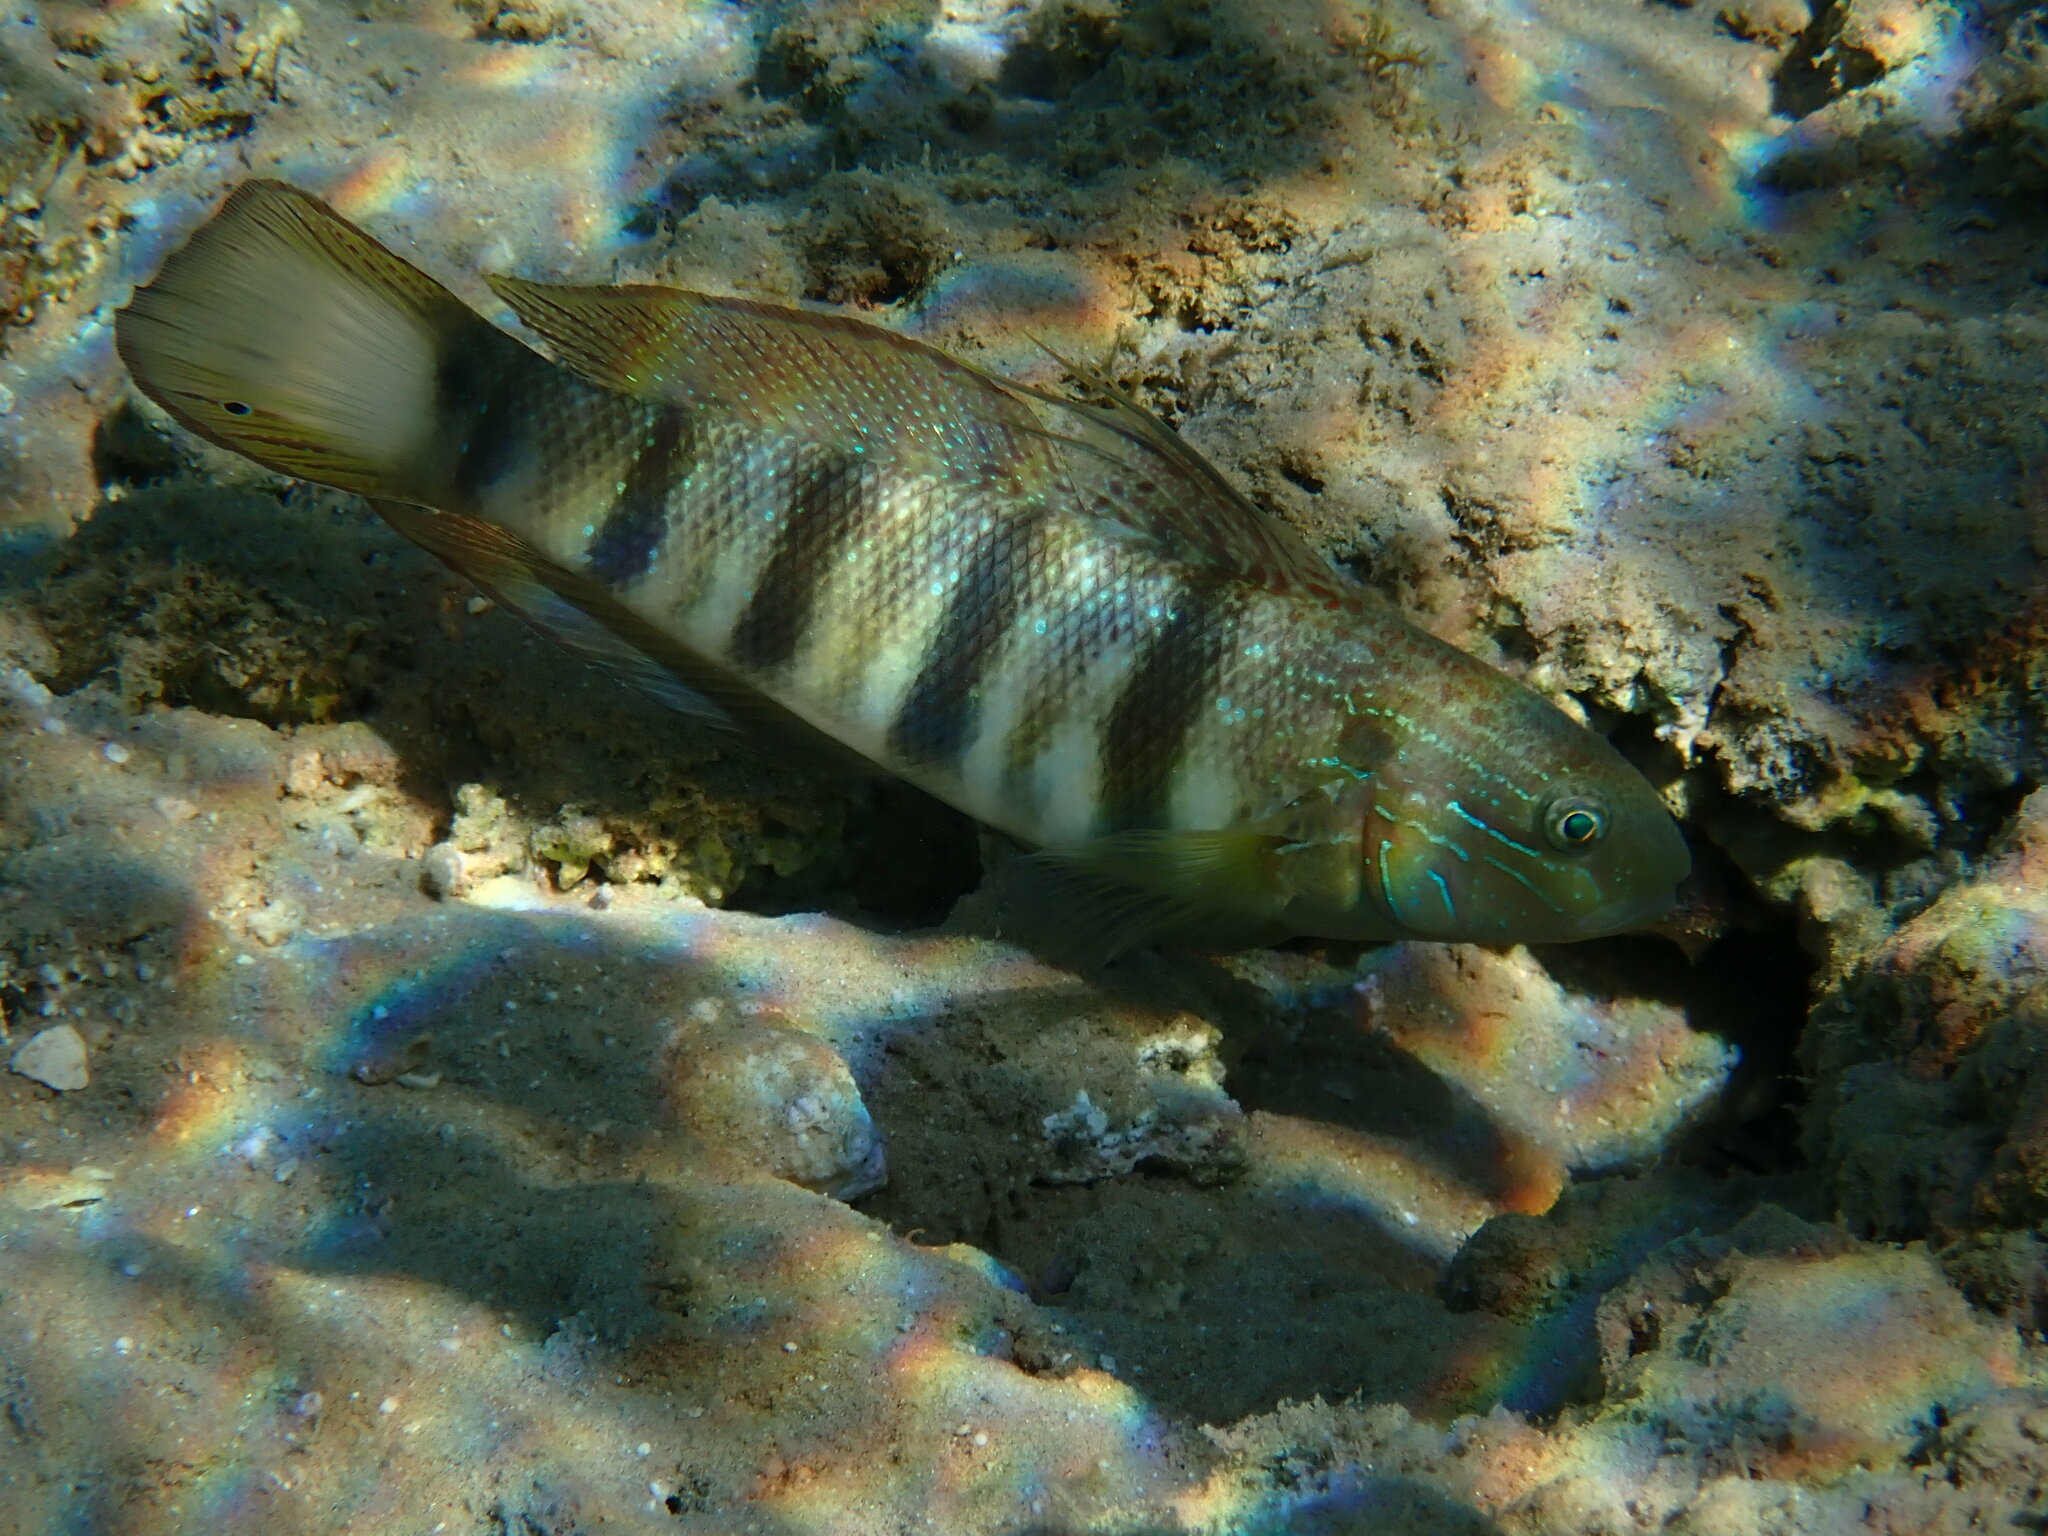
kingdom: Animalia
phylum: Chordata
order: Perciformes
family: Gobiidae
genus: Amblygobius
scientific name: Amblygobius albimaculatus
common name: Butterfly goby
